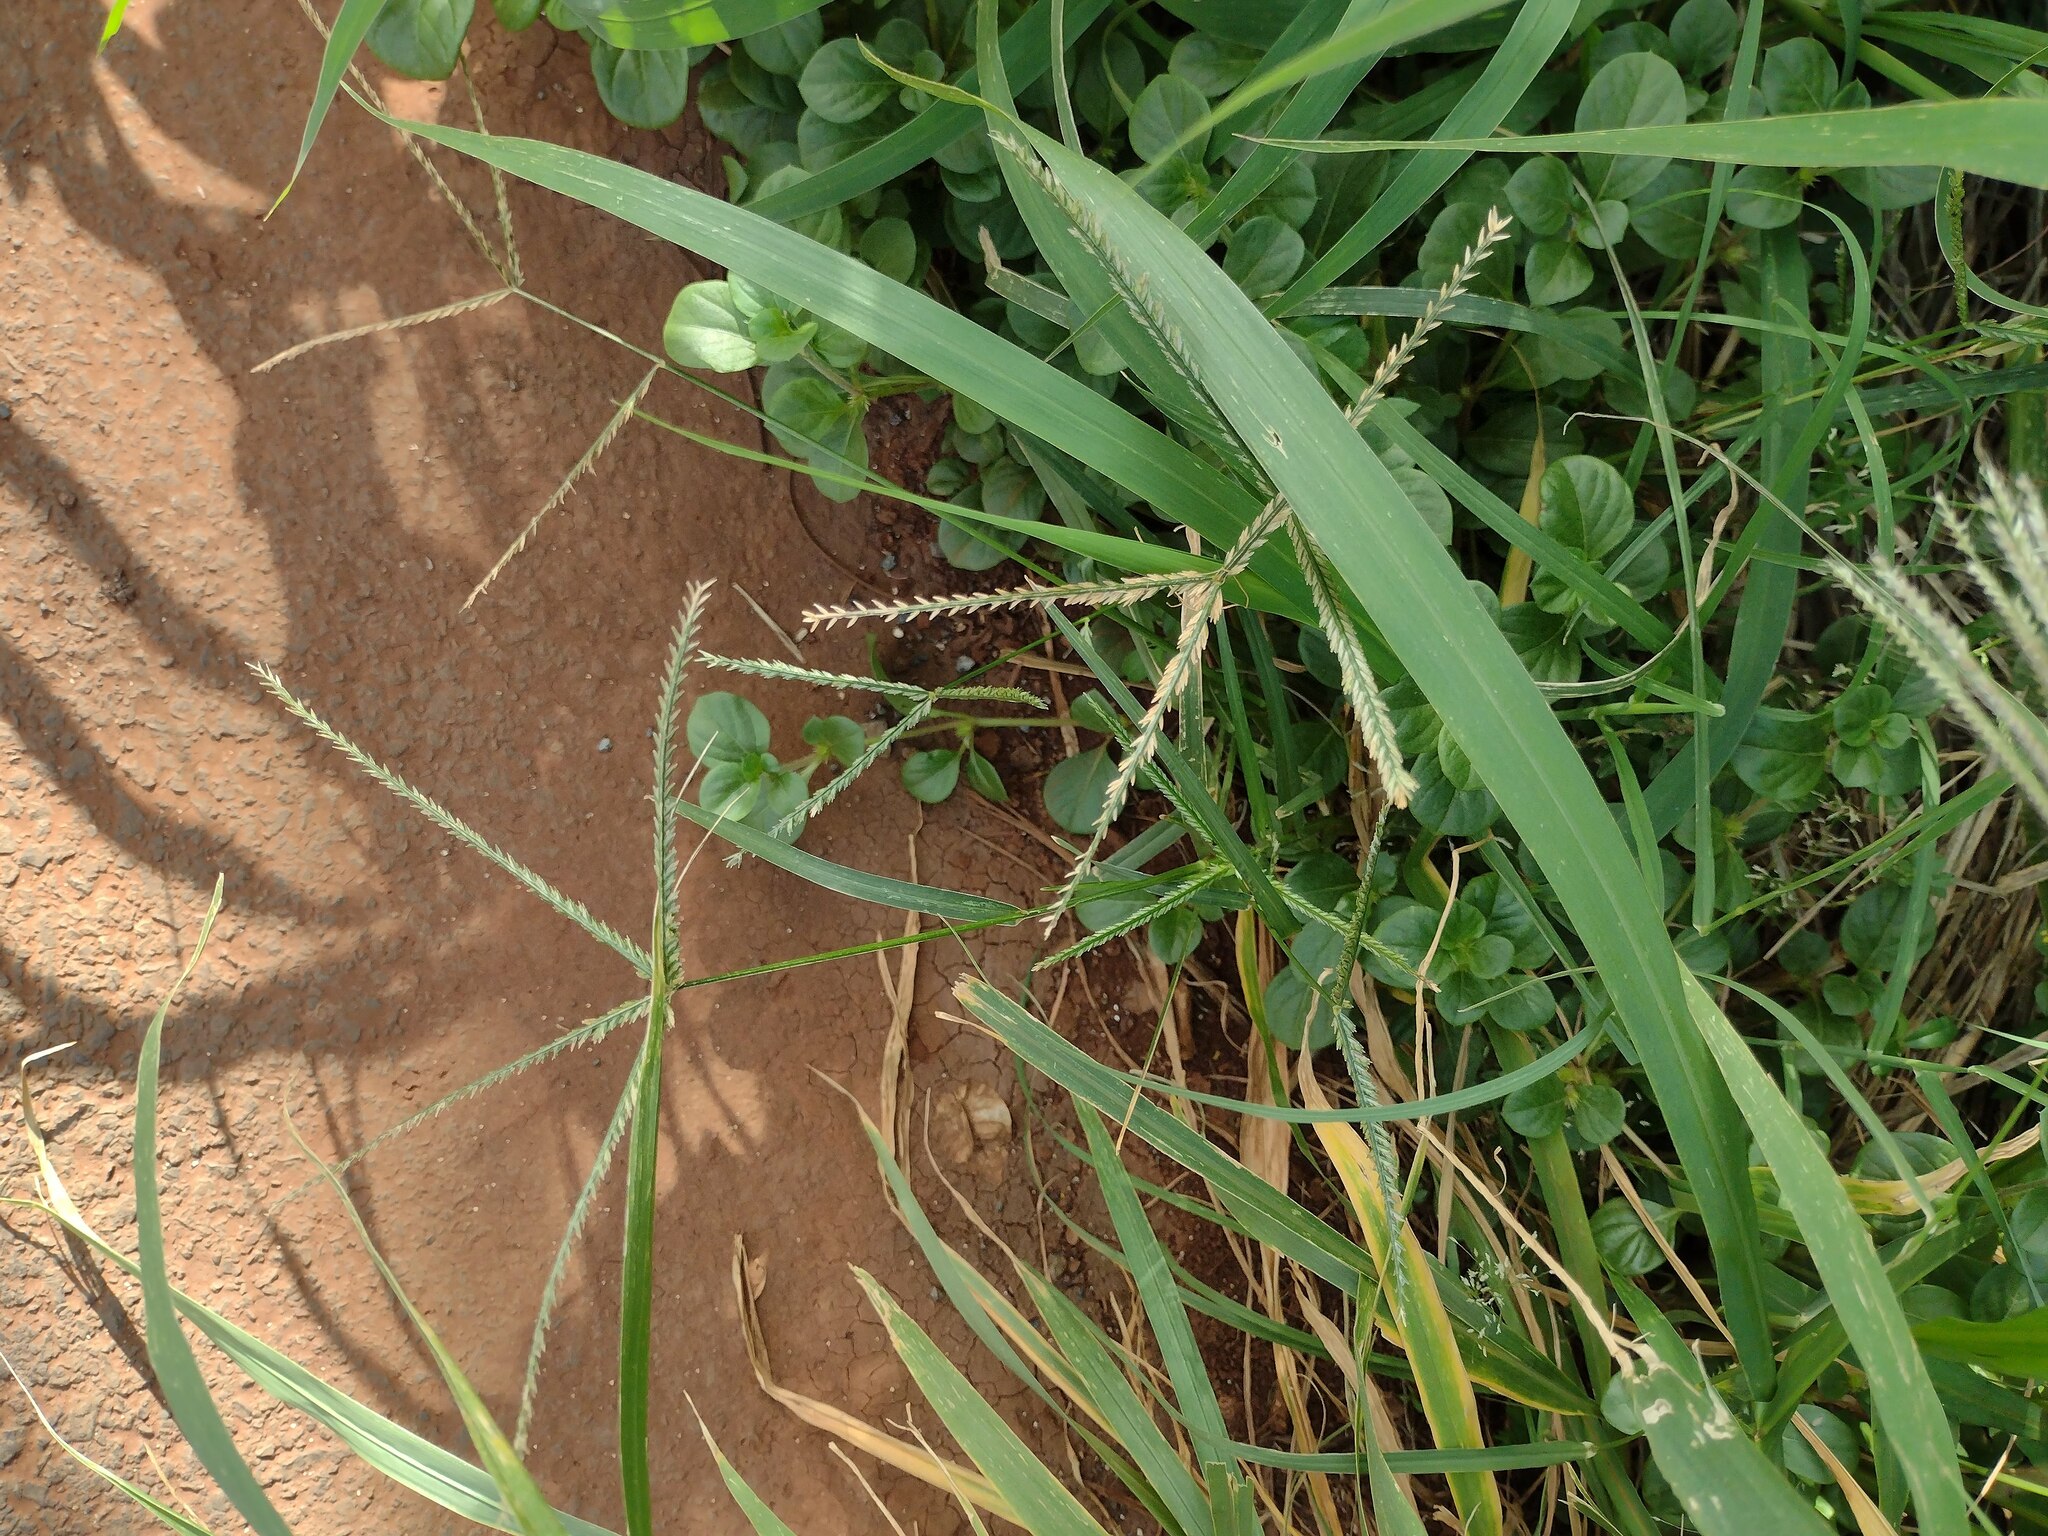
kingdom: Plantae
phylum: Tracheophyta
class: Liliopsida
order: Poales
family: Poaceae
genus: Eleusine
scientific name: Eleusine indica
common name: Yard-grass
